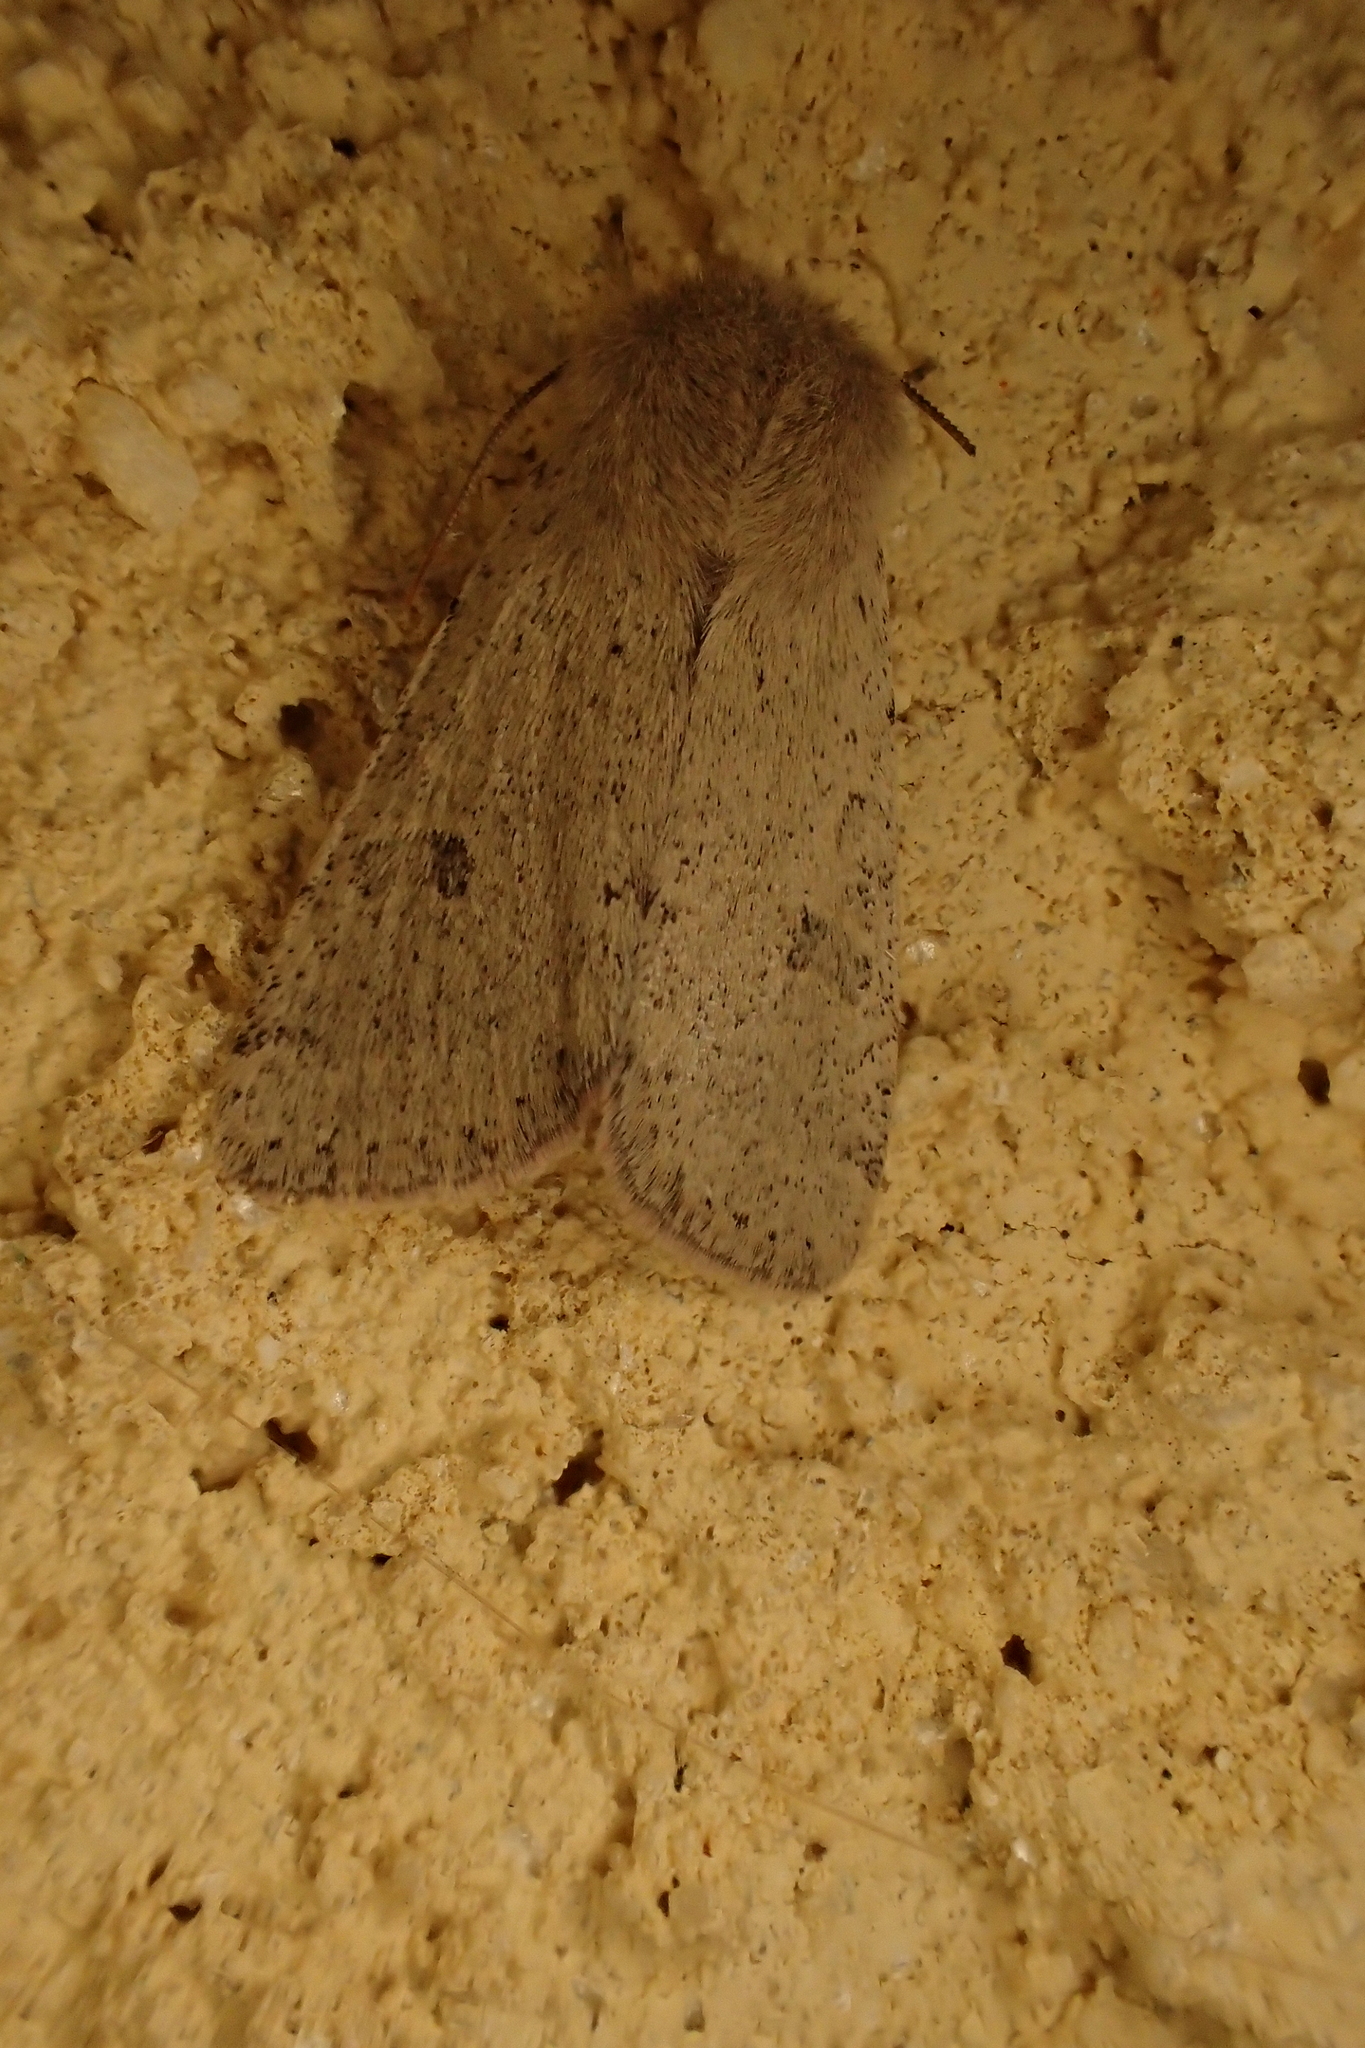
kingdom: Animalia
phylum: Arthropoda
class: Insecta
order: Lepidoptera
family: Noctuidae
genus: Orthosia
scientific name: Orthosia cruda
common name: Small quaker
